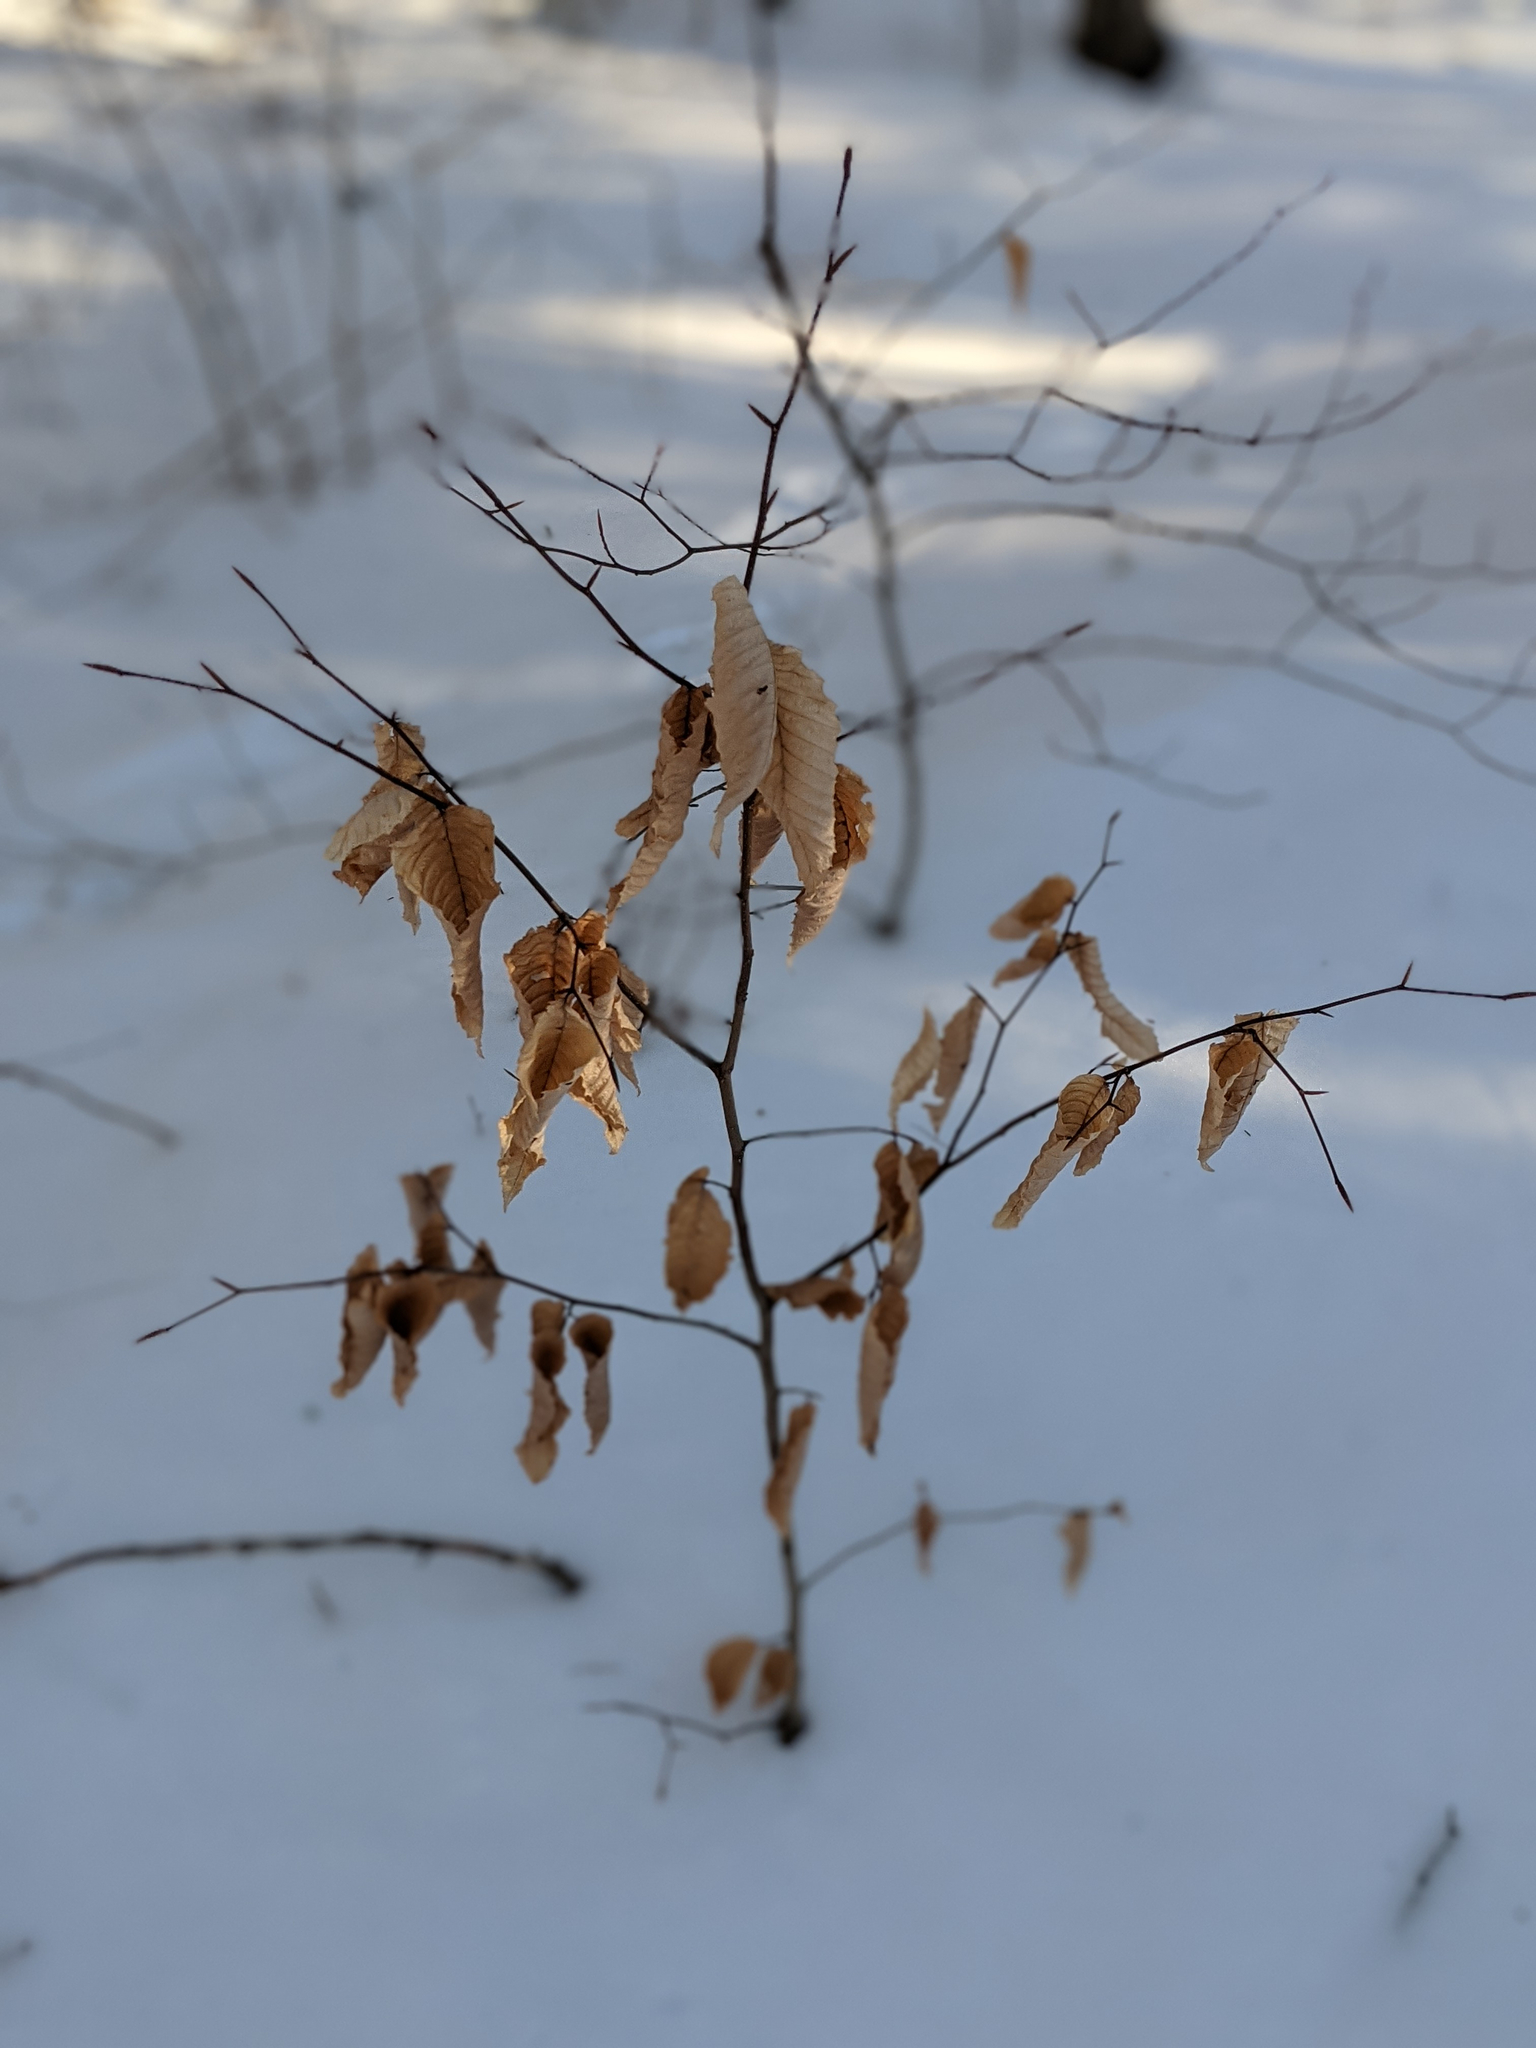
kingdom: Plantae
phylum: Tracheophyta
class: Magnoliopsida
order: Fagales
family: Fagaceae
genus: Fagus
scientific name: Fagus grandifolia
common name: American beech
